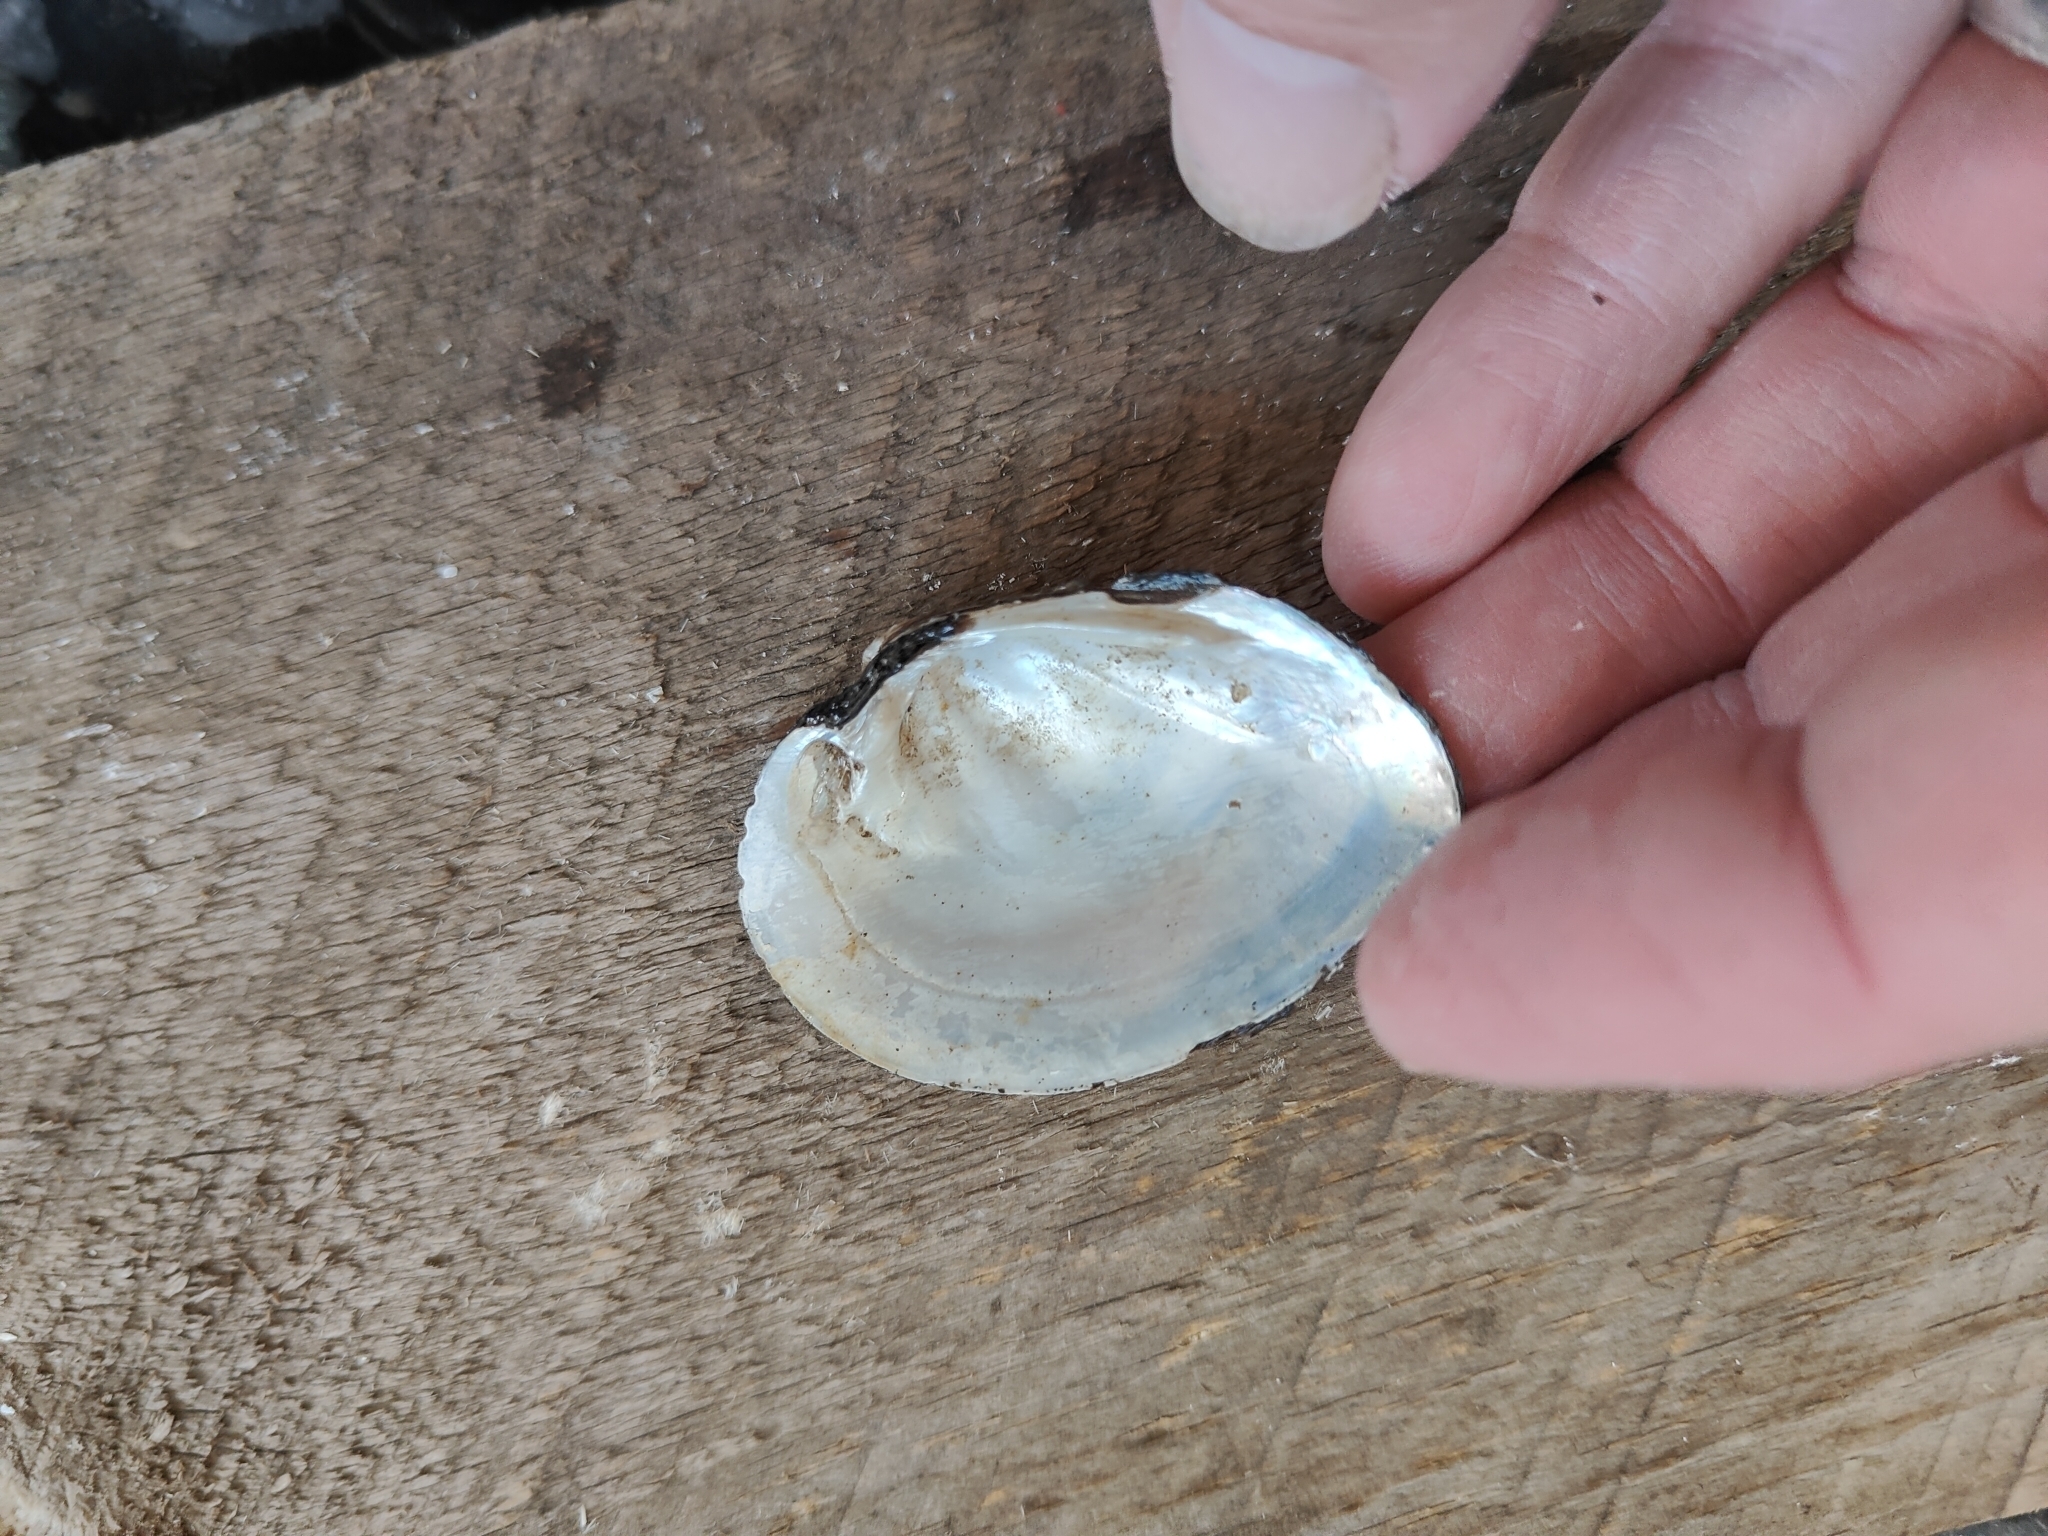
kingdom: Animalia
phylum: Mollusca
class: Bivalvia
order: Unionida
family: Unionidae
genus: Fusconaia
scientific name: Fusconaia flava
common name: Wabash pigtoe
